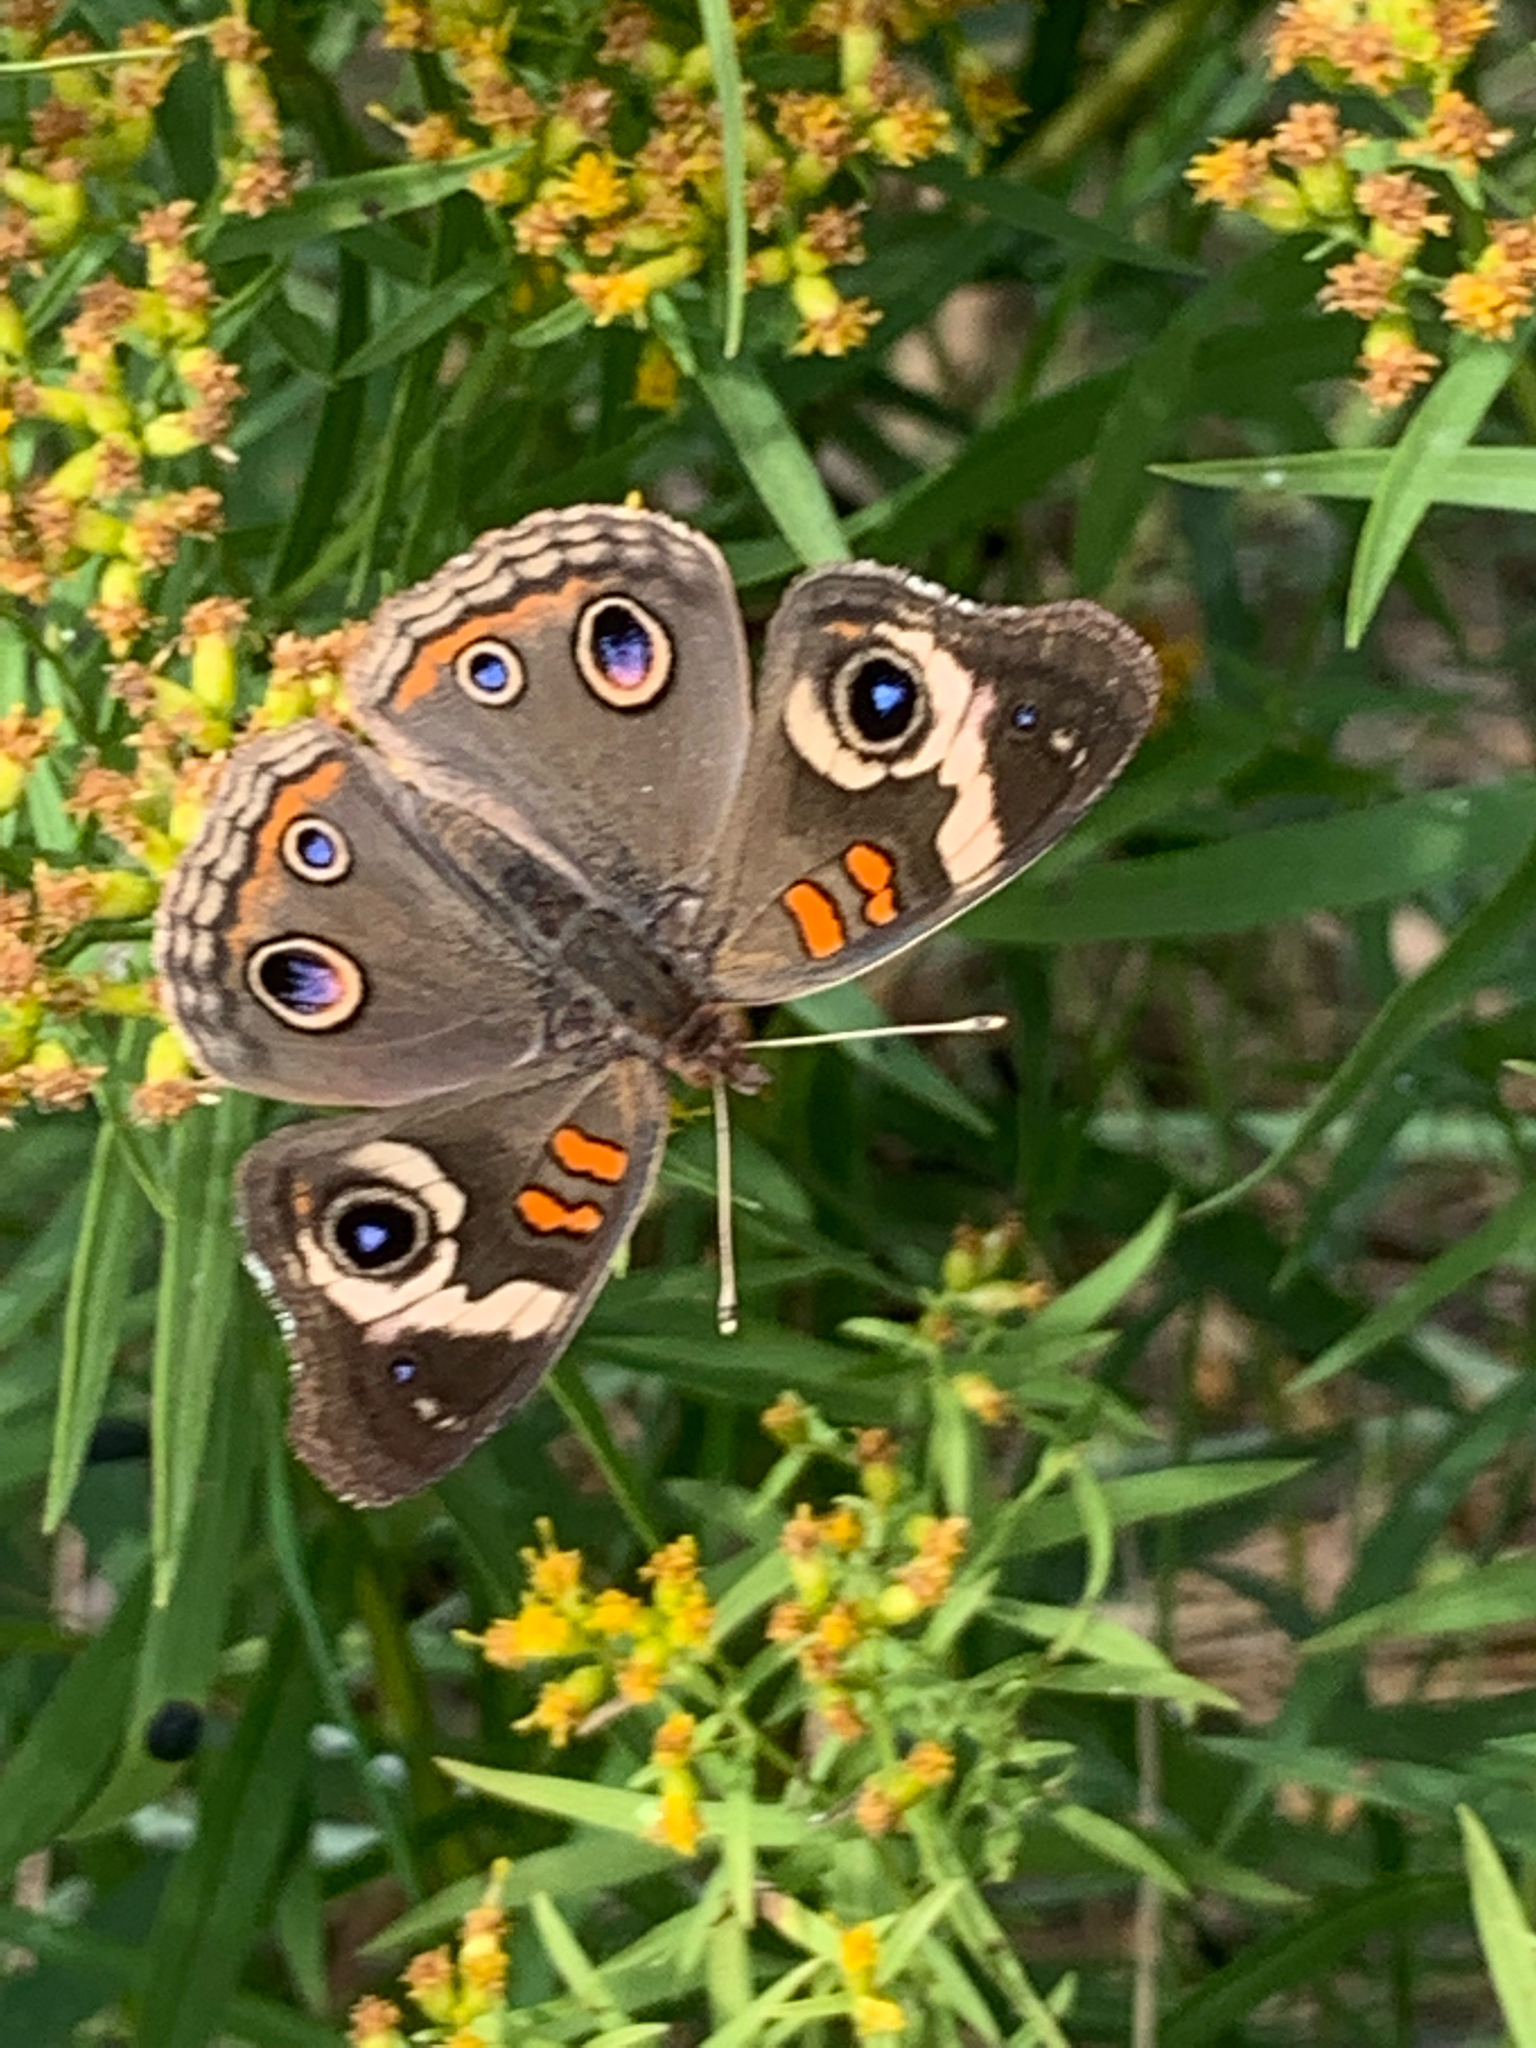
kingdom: Animalia
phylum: Arthropoda
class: Insecta
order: Lepidoptera
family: Nymphalidae
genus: Junonia
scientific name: Junonia coenia
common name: Common buckeye
